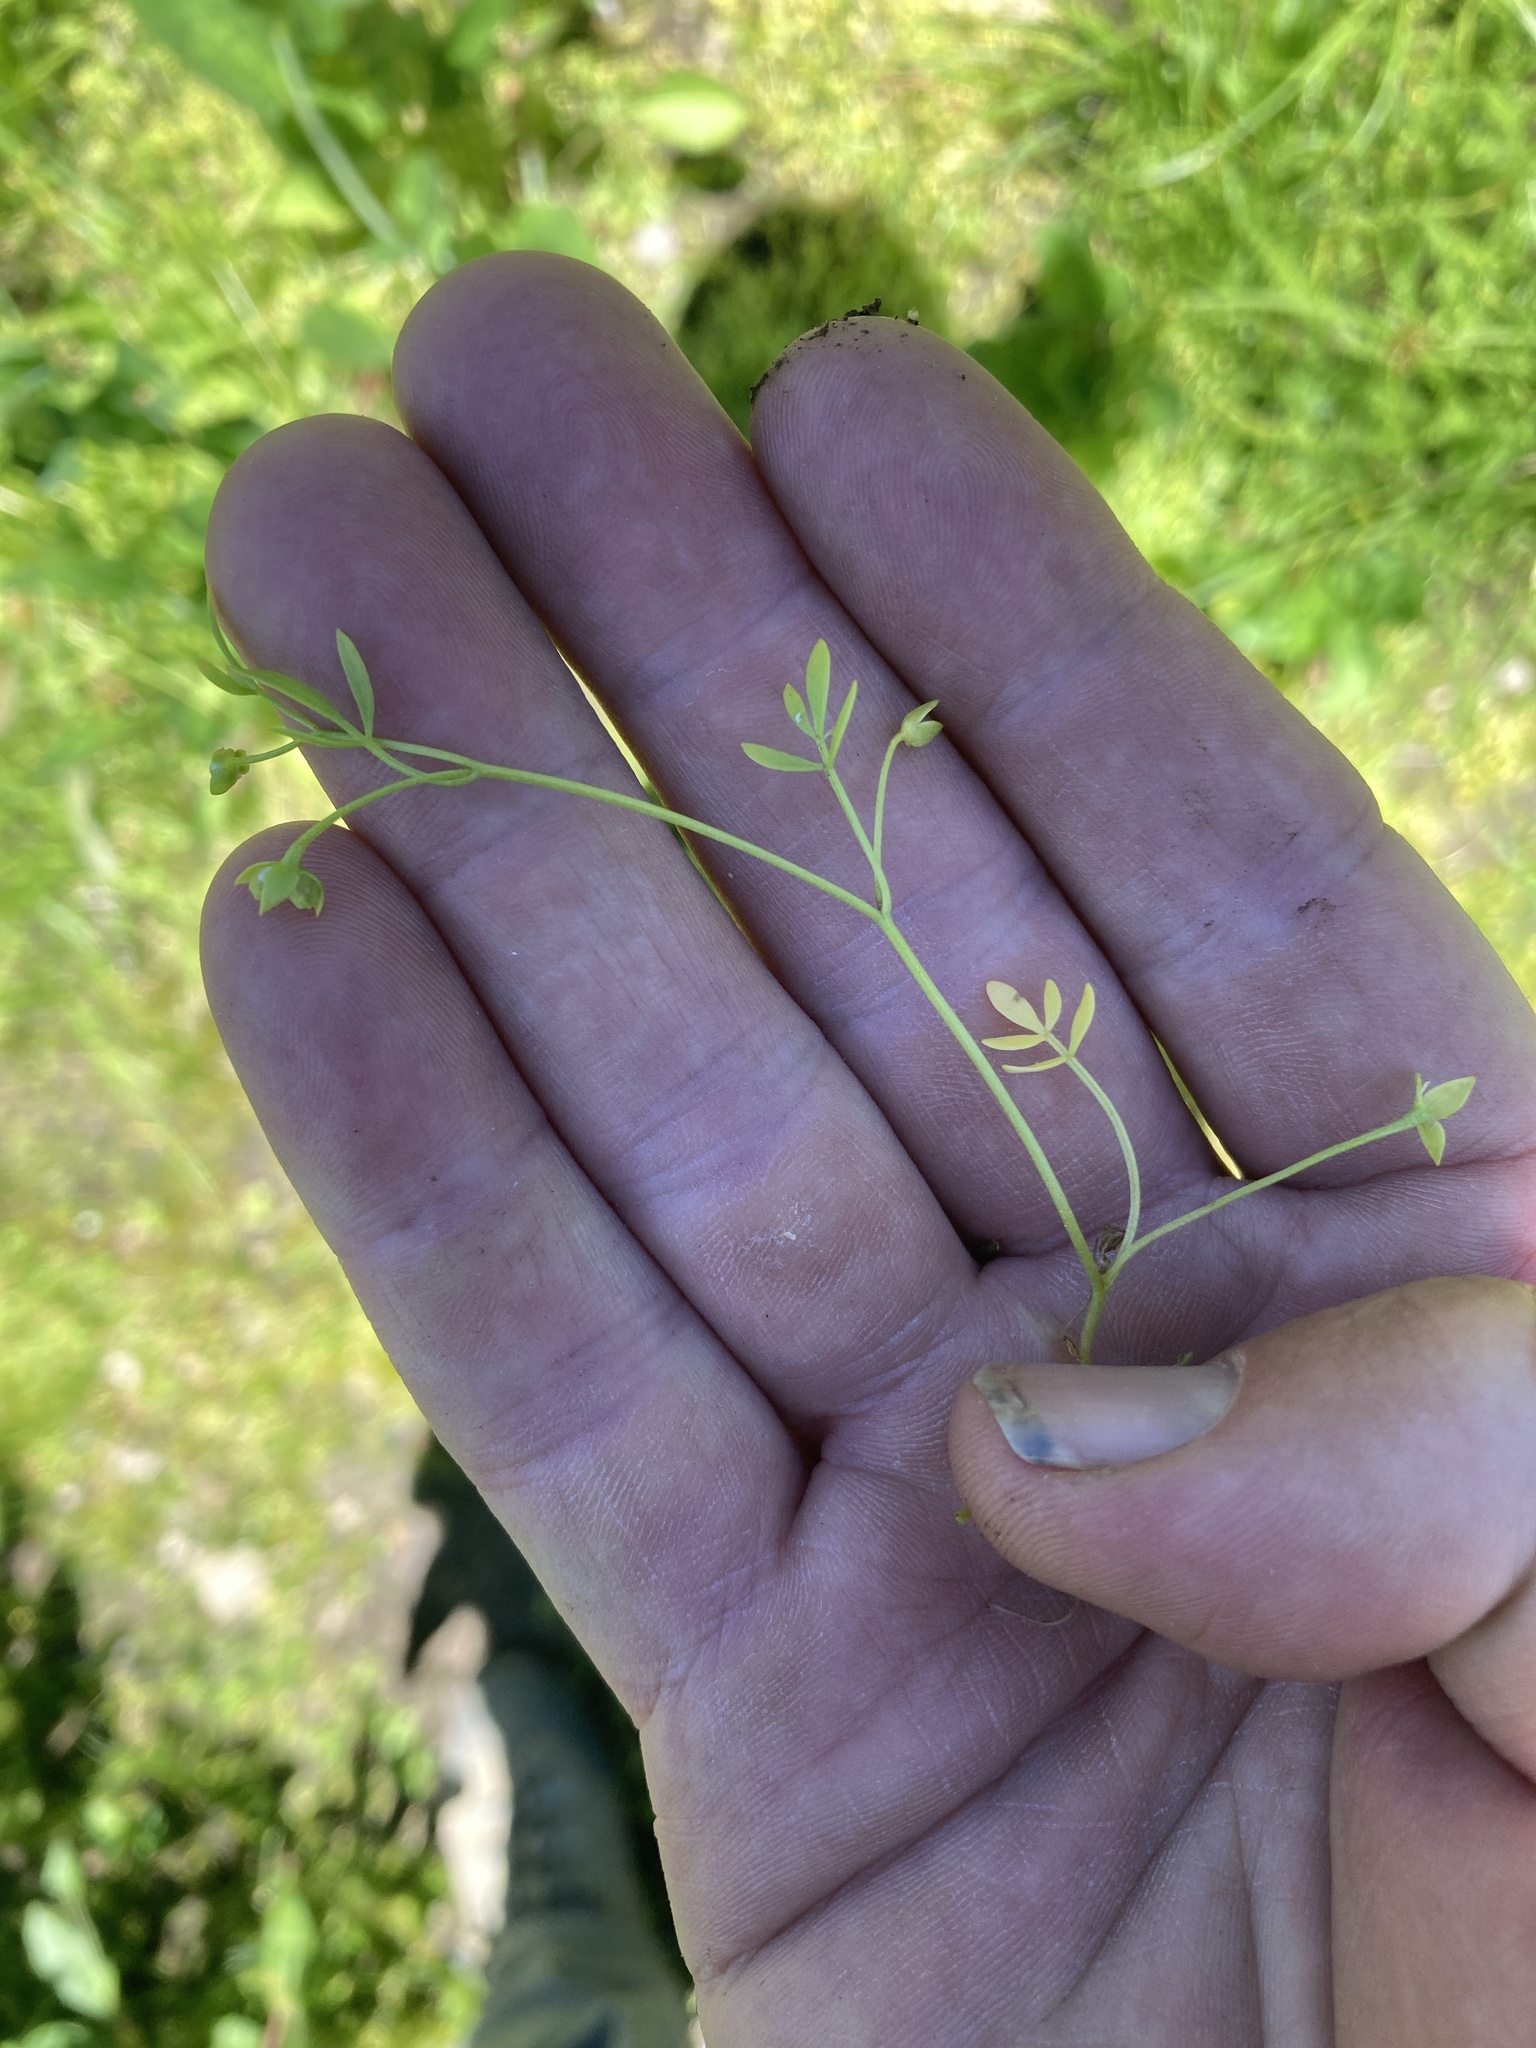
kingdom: Plantae
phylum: Tracheophyta
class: Magnoliopsida
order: Brassicales
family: Limnanthaceae
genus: Floerkea
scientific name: Floerkea proserpinacoides
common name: False mermaid
